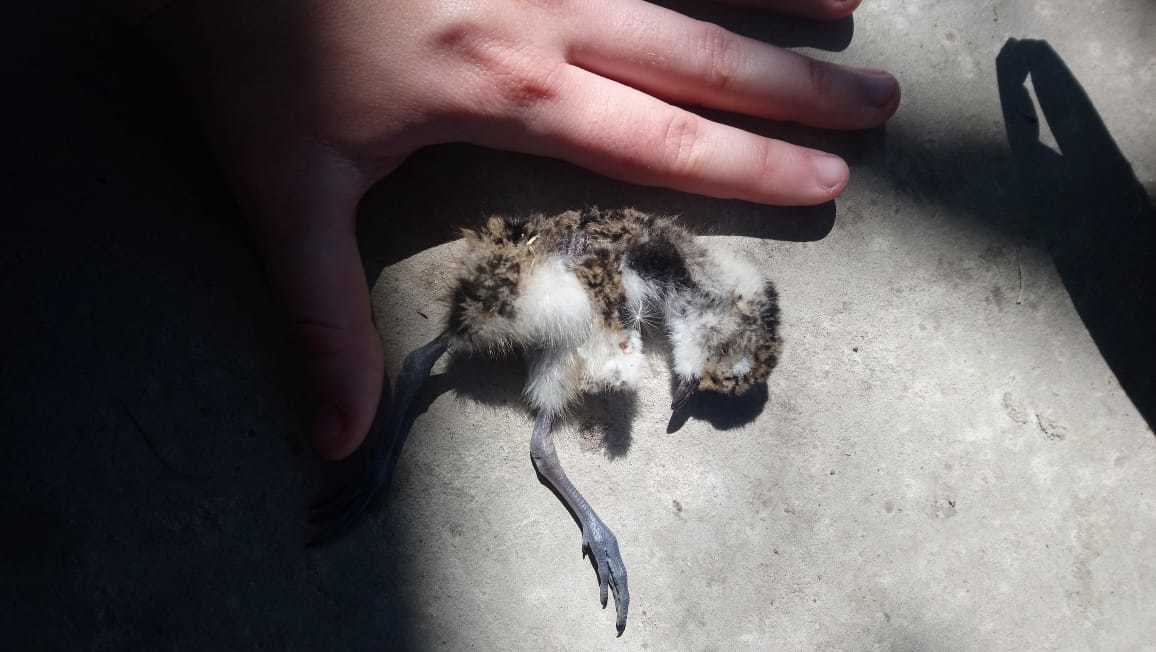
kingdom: Animalia
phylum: Chordata
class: Aves
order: Charadriiformes
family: Charadriidae
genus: Vanellus
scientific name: Vanellus chilensis
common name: Southern lapwing
